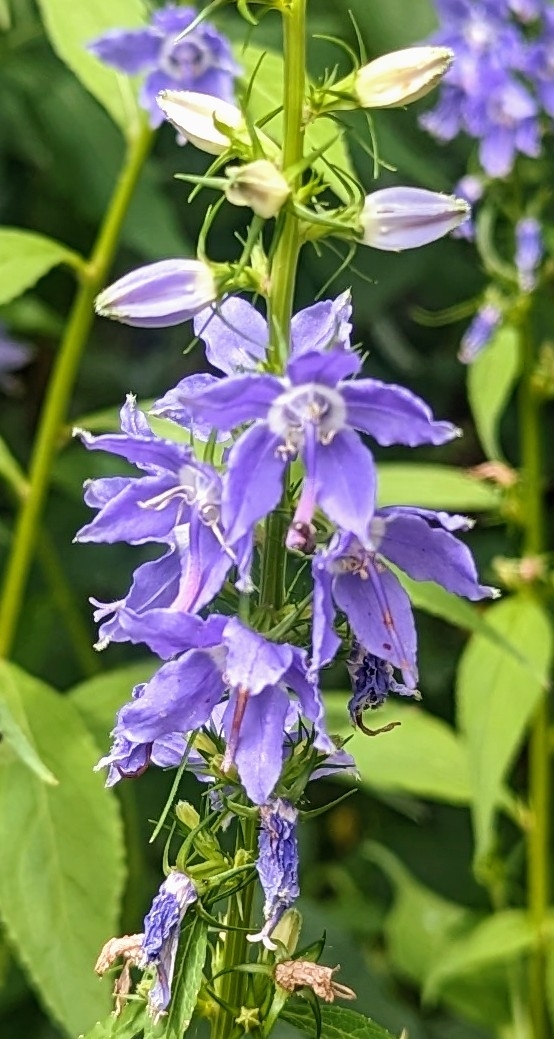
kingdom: Plantae
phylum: Tracheophyta
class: Magnoliopsida
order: Asterales
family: Campanulaceae
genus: Campanulastrum
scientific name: Campanulastrum americanum
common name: American bellflower
